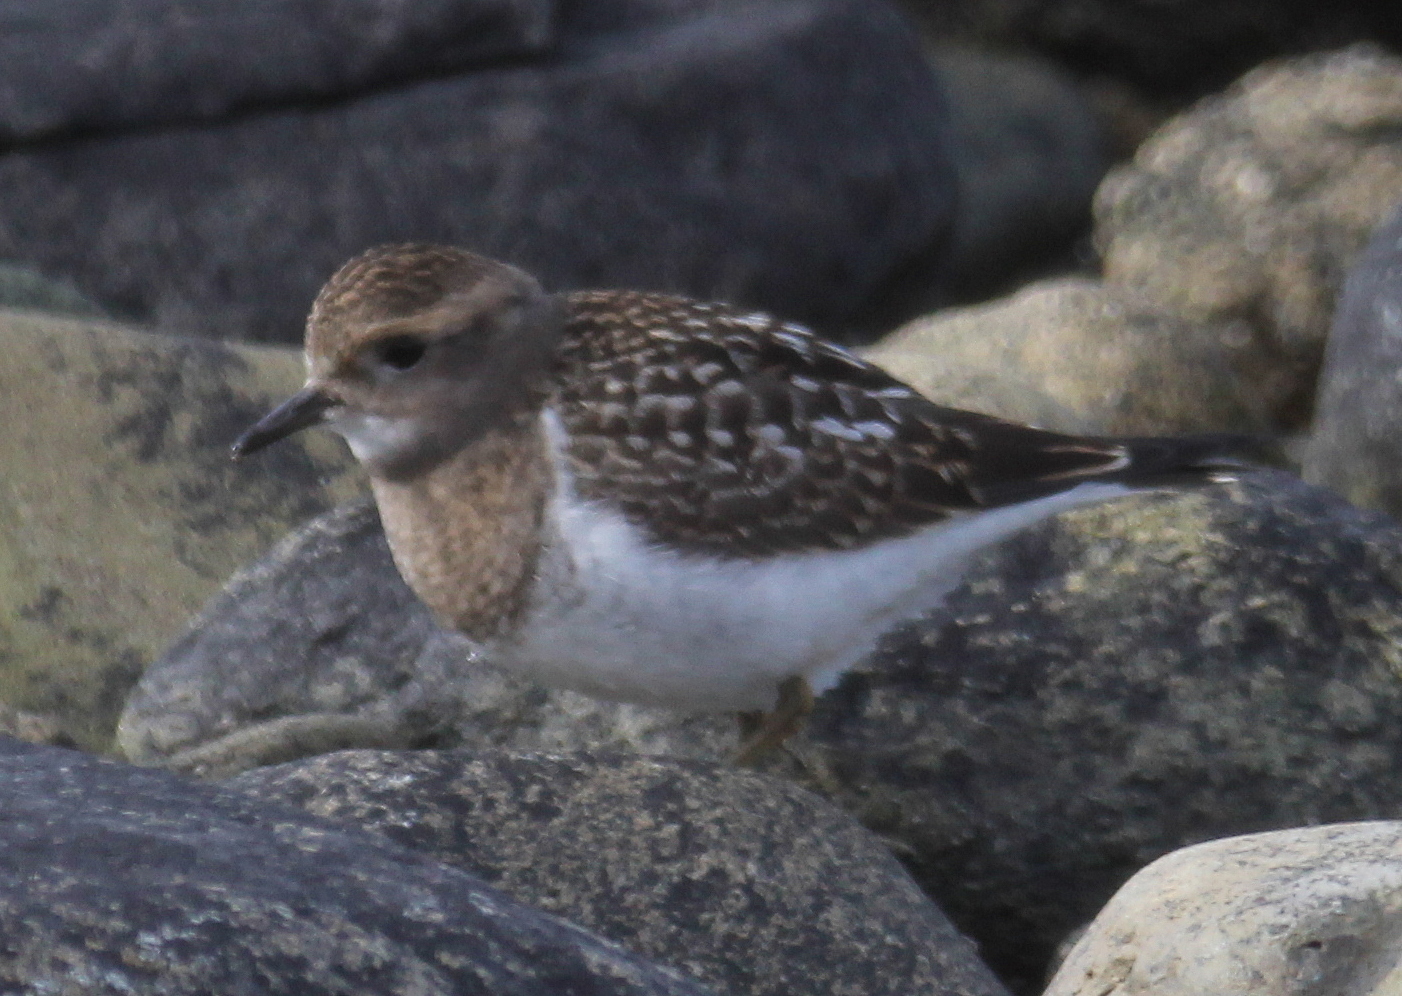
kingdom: Animalia
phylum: Chordata
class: Aves
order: Charadriiformes
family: Charadriidae
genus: Charadrius
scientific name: Charadrius modestus
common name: Rufous-chested plover
